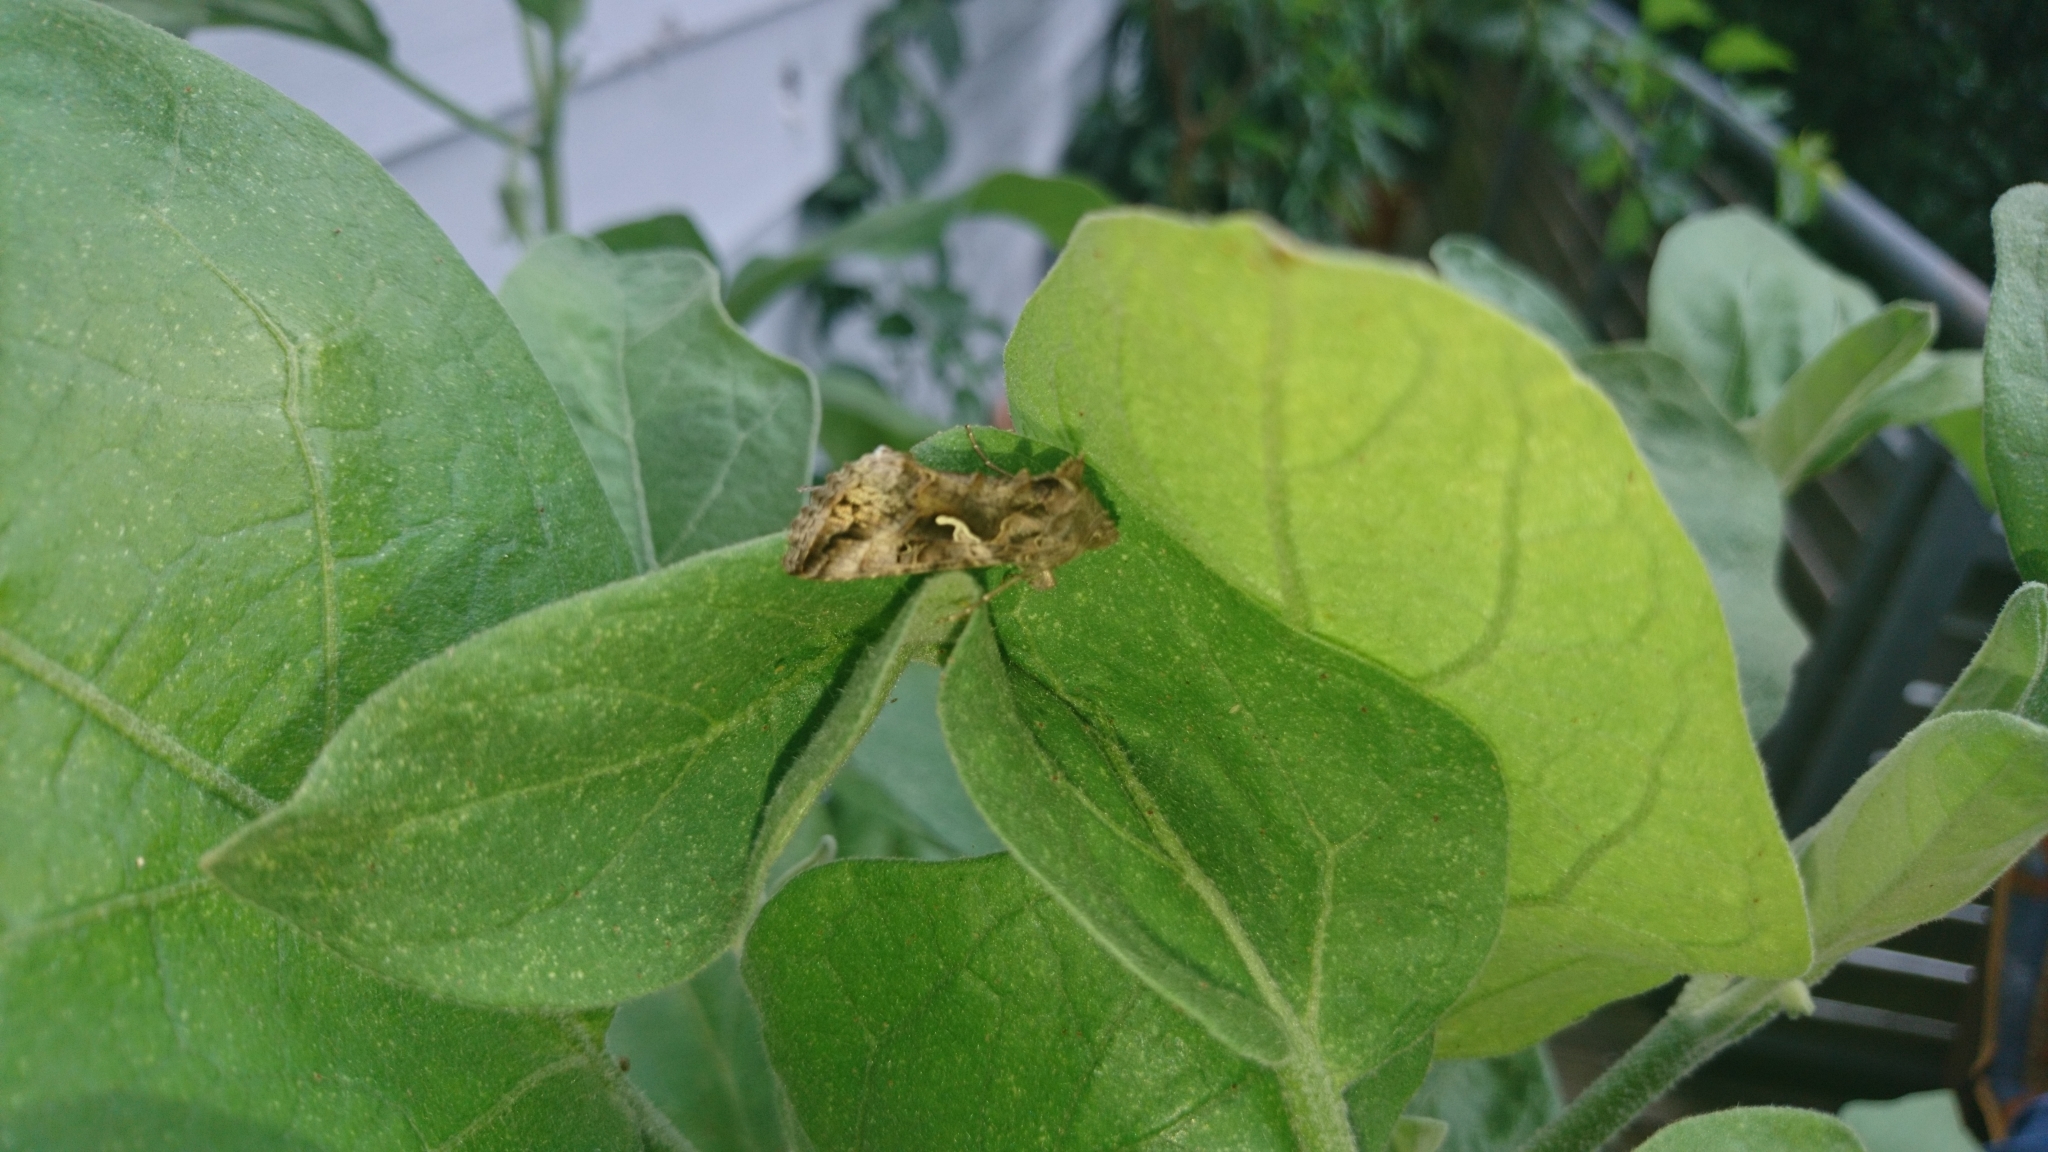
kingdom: Animalia
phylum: Arthropoda
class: Insecta
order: Lepidoptera
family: Noctuidae
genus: Autographa
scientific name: Autographa gamma
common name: Silver y
